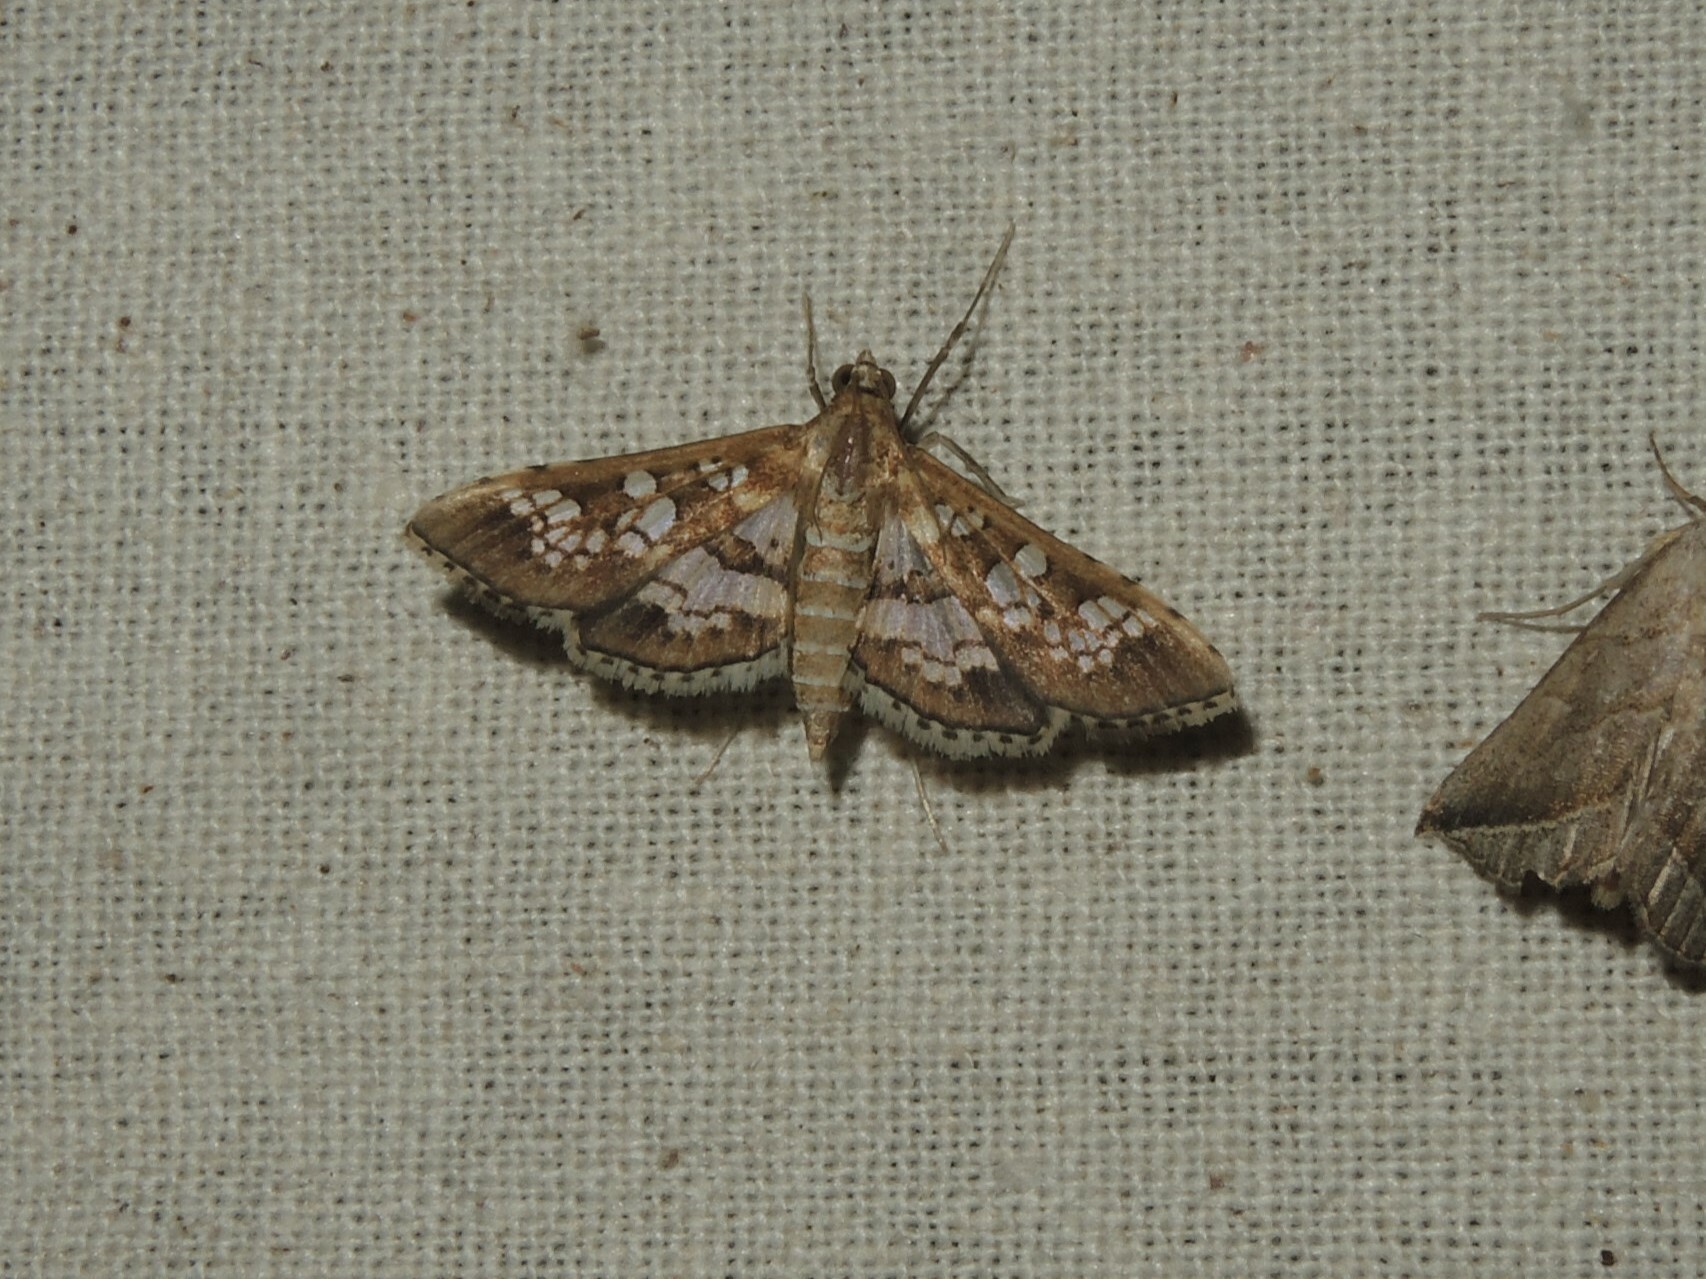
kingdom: Animalia
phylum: Arthropoda
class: Insecta
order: Lepidoptera
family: Crambidae
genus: Sameodes
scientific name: Sameodes cancellalis
